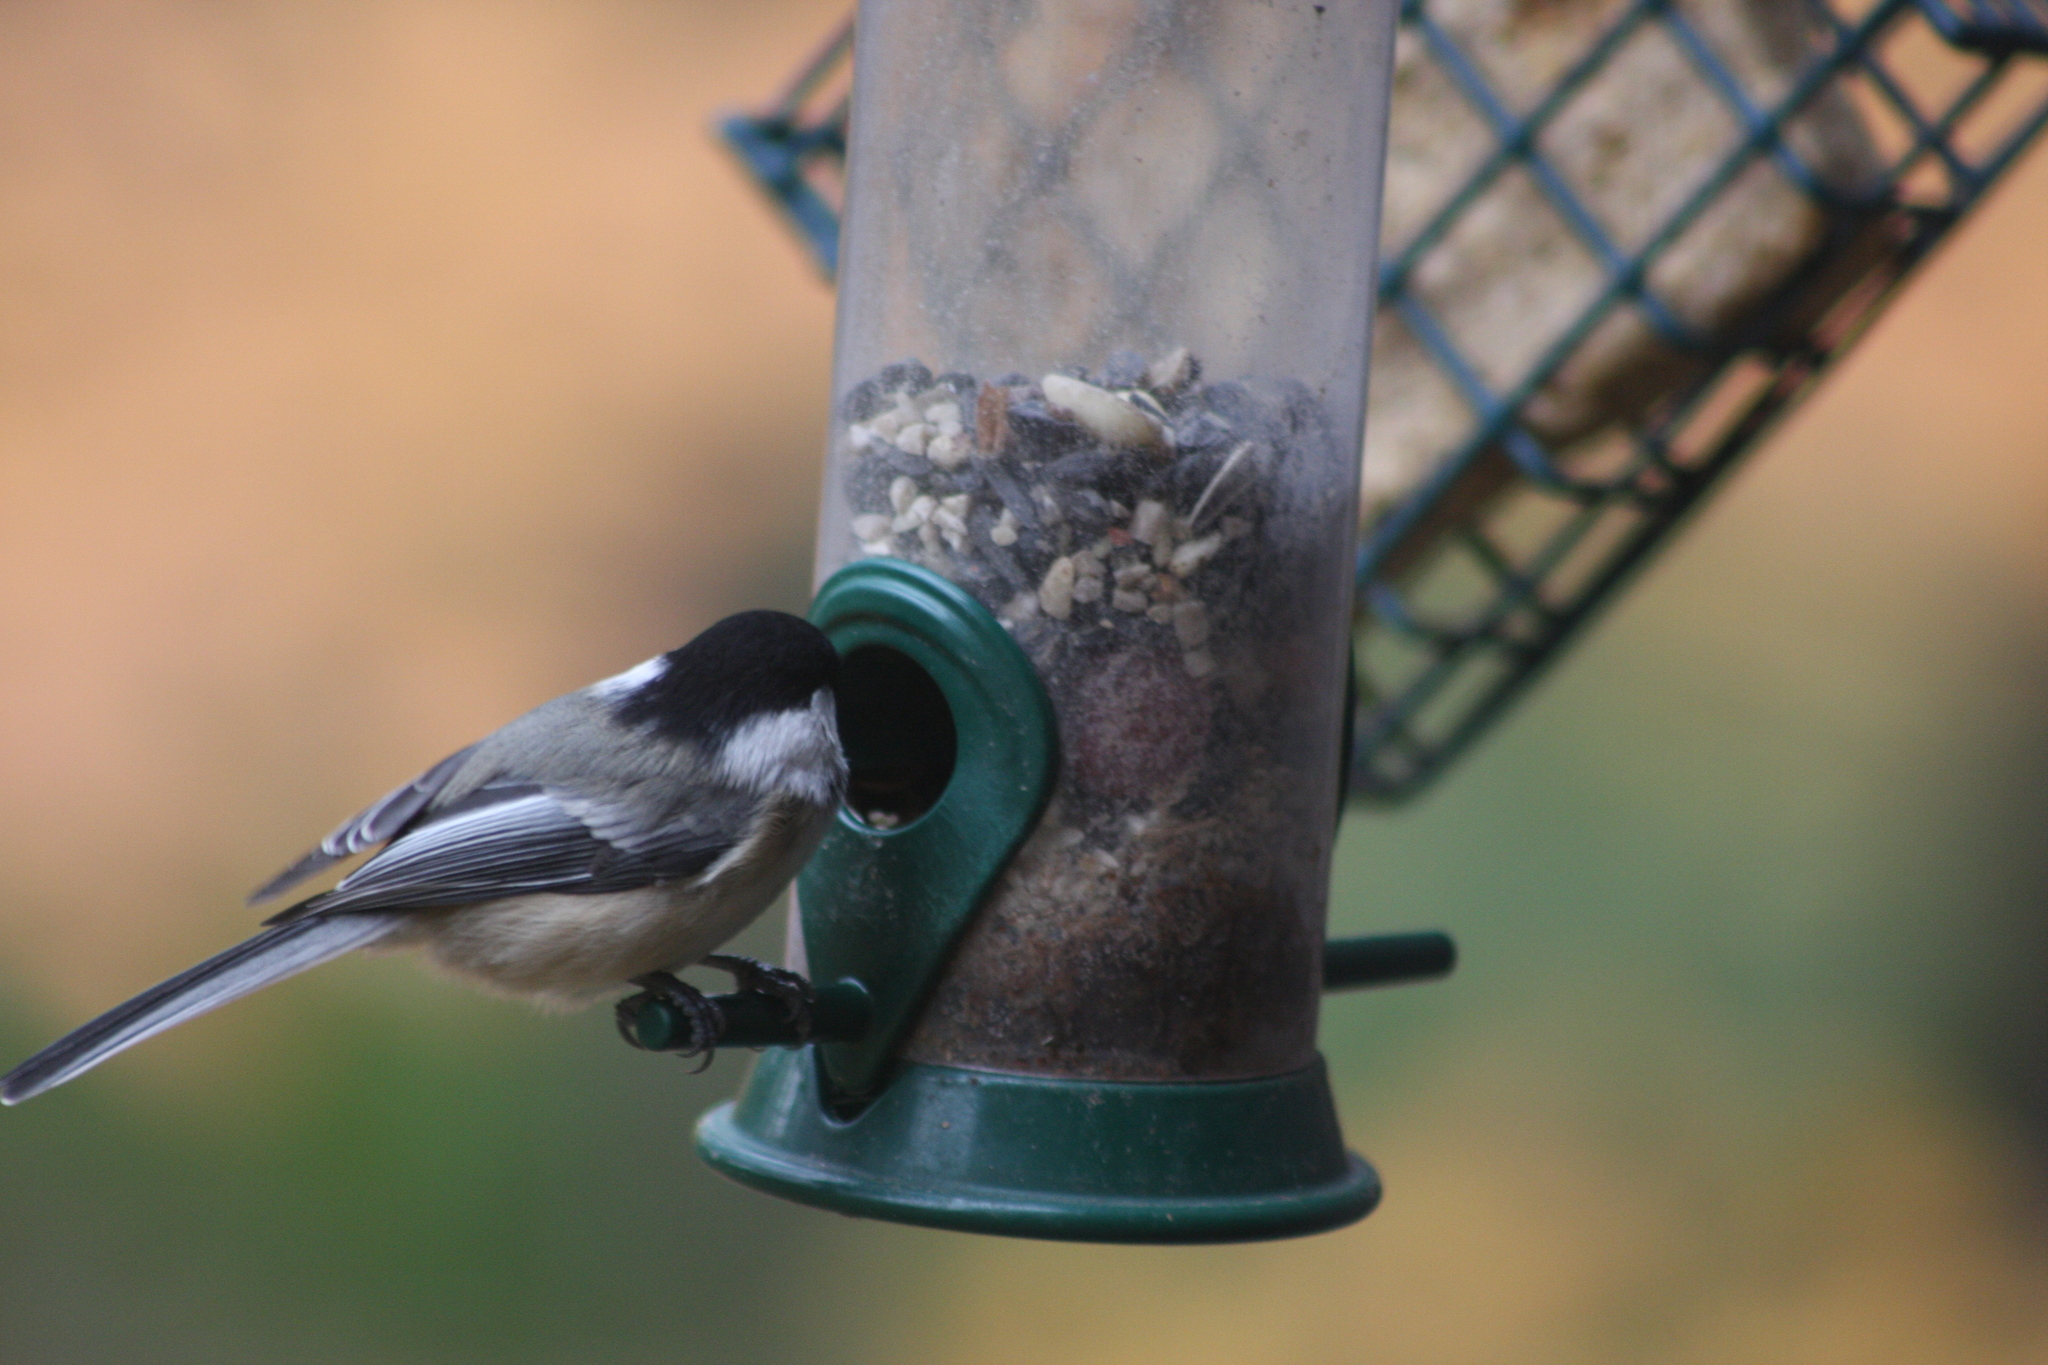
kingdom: Animalia
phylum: Chordata
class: Aves
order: Passeriformes
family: Paridae
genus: Poecile
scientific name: Poecile atricapillus
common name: Black-capped chickadee
